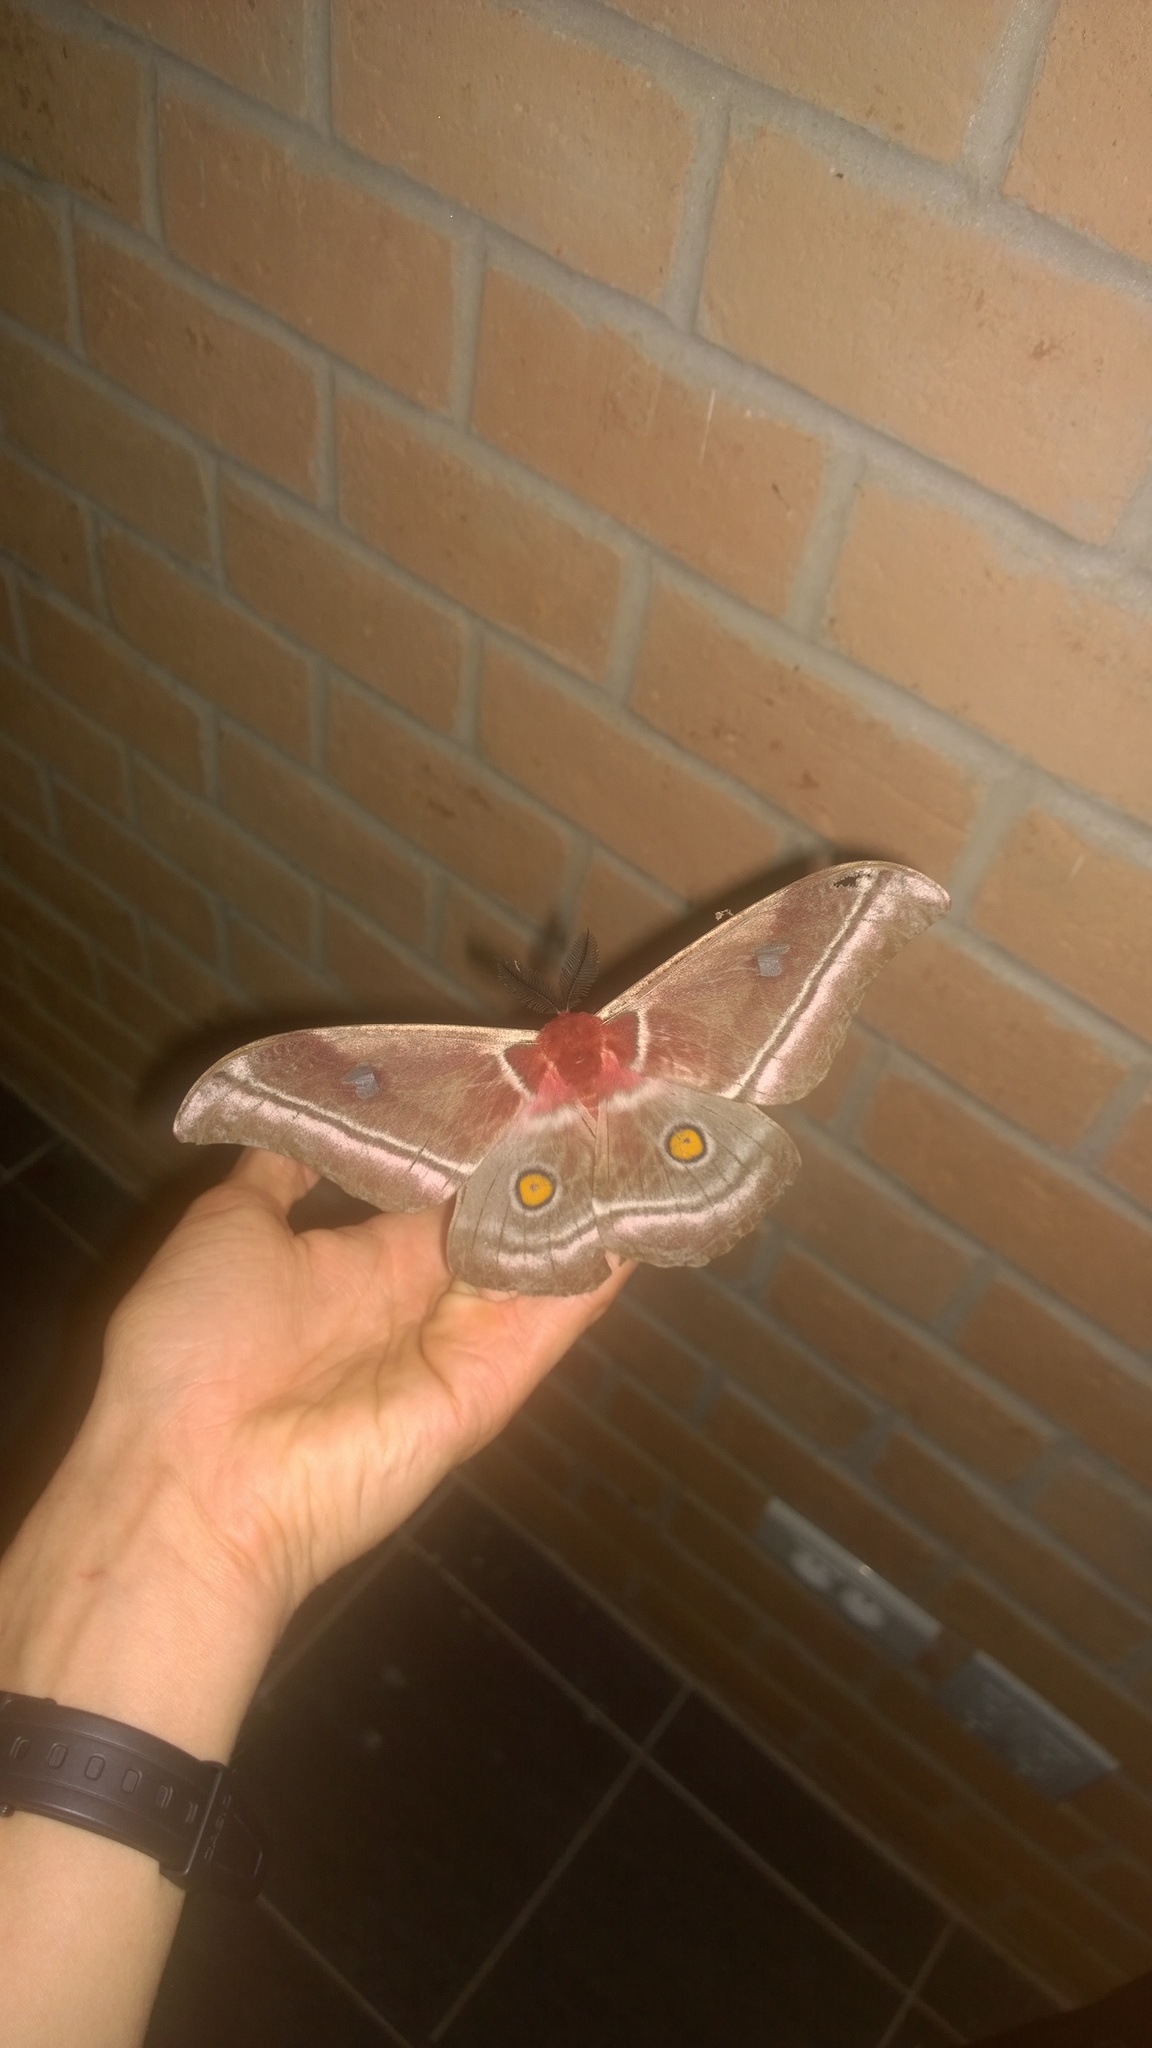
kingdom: Animalia
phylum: Arthropoda
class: Insecta
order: Lepidoptera
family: Saturniidae
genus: Bunaea
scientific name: Bunaea aslauga
